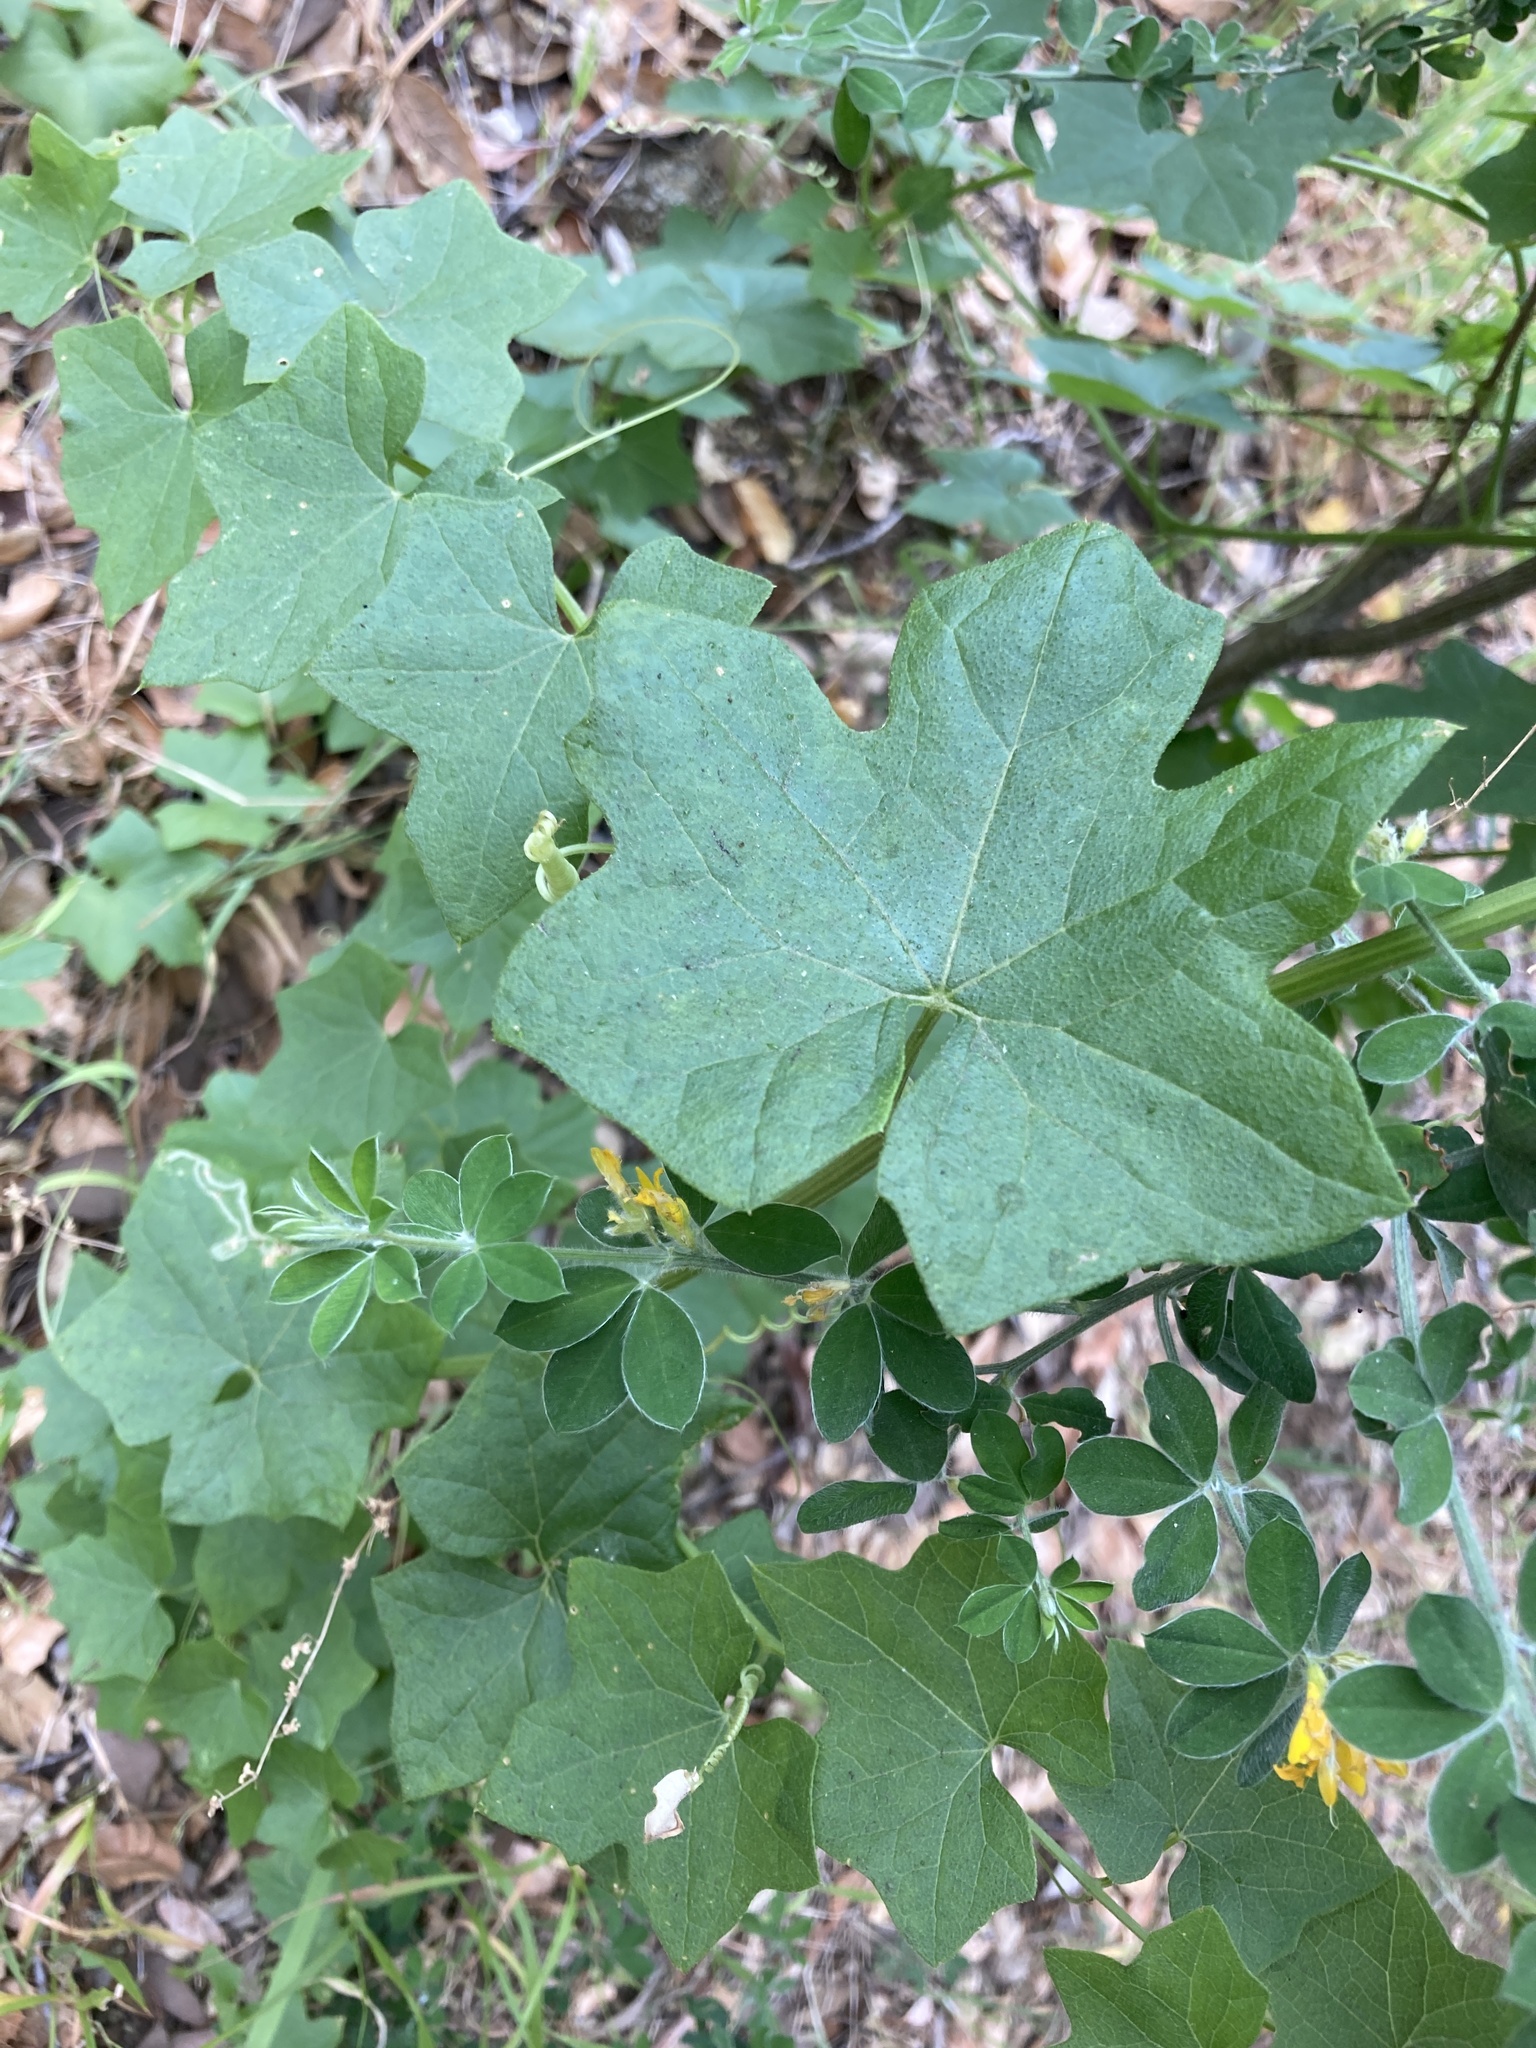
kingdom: Plantae
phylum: Tracheophyta
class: Magnoliopsida
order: Cucurbitales
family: Cucurbitaceae
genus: Marah
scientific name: Marah fabacea
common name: California manroot
